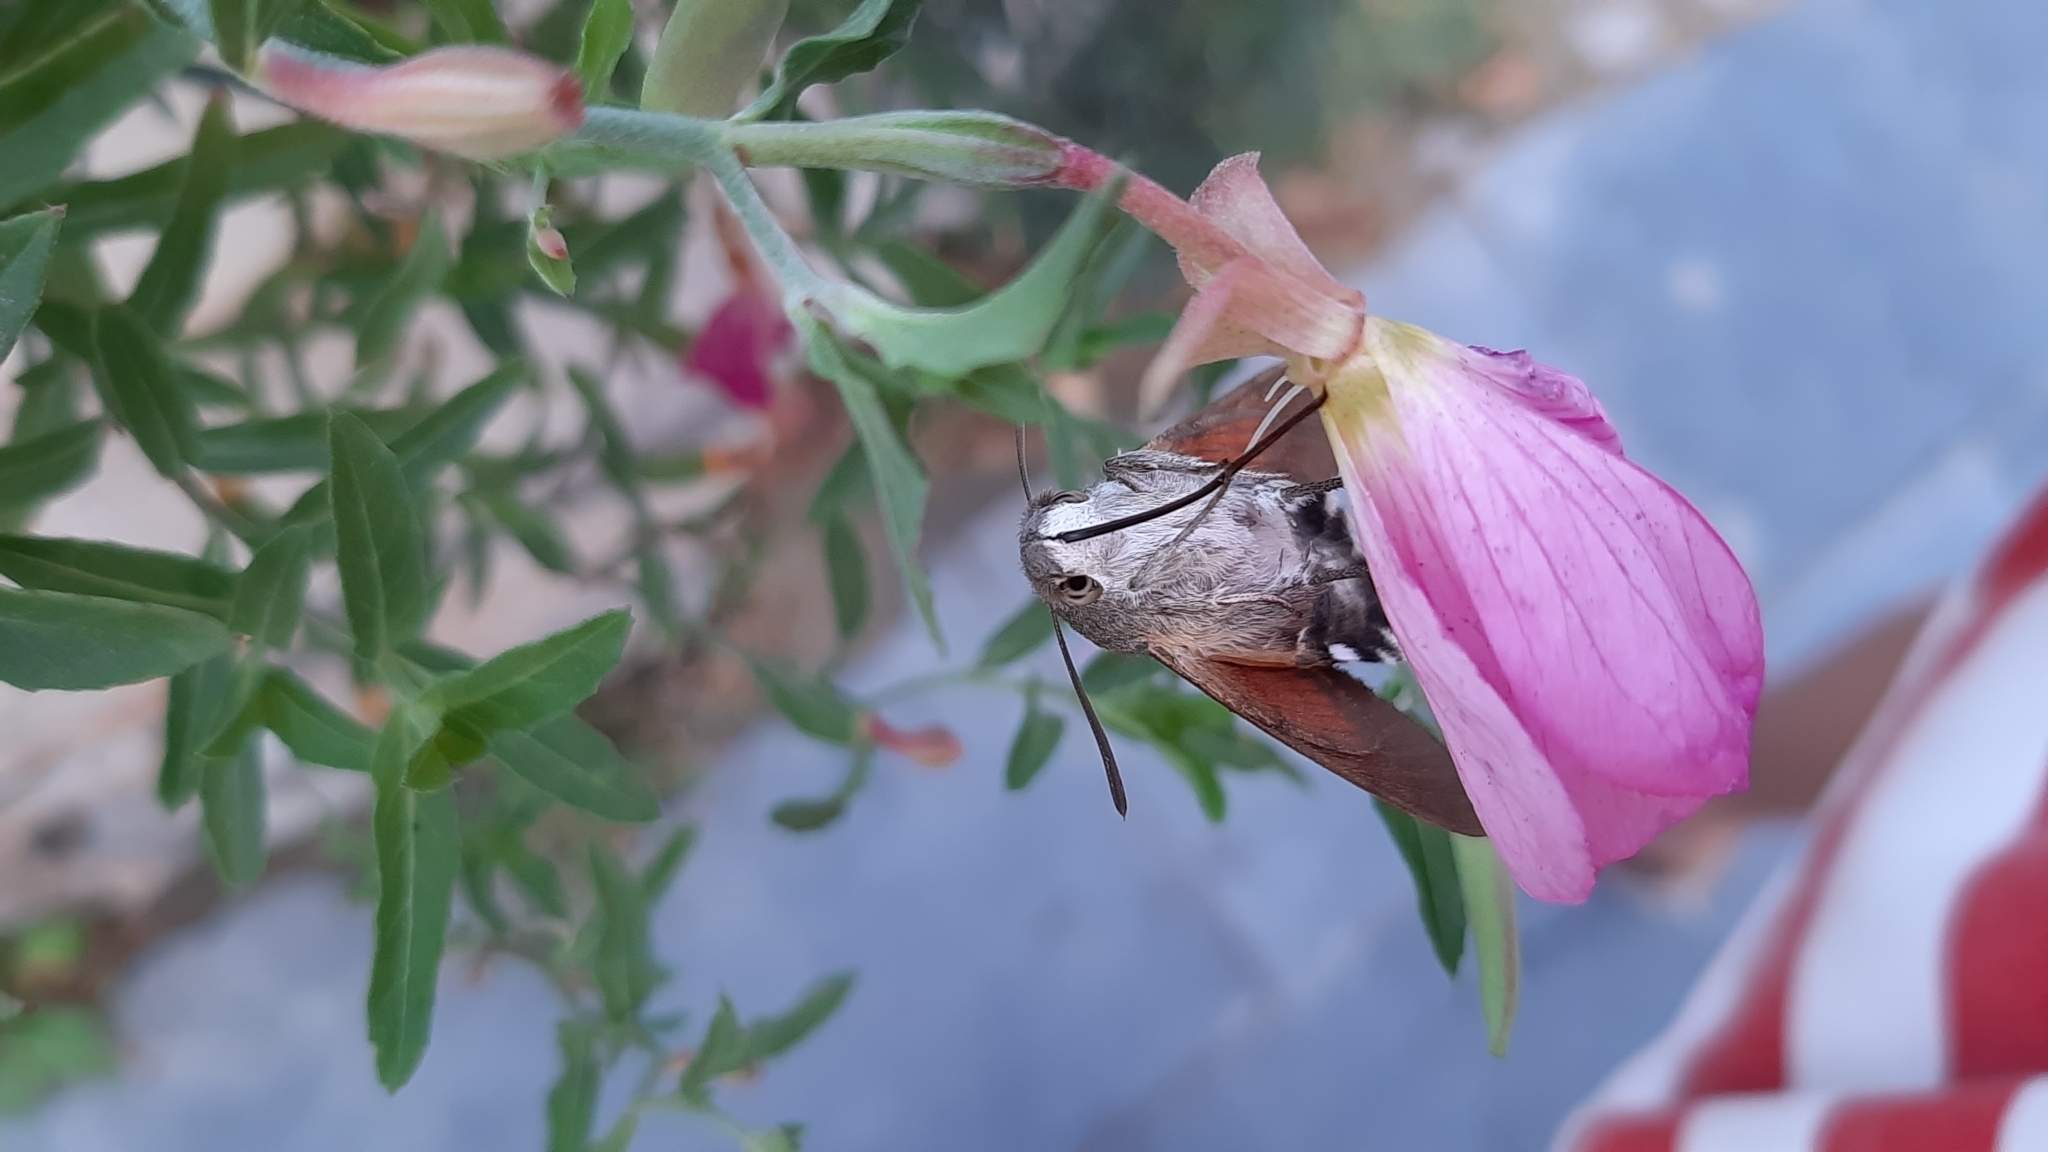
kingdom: Animalia
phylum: Arthropoda
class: Insecta
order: Lepidoptera
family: Sphingidae
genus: Macroglossum
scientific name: Macroglossum stellatarum
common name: Humming-bird hawk-moth
